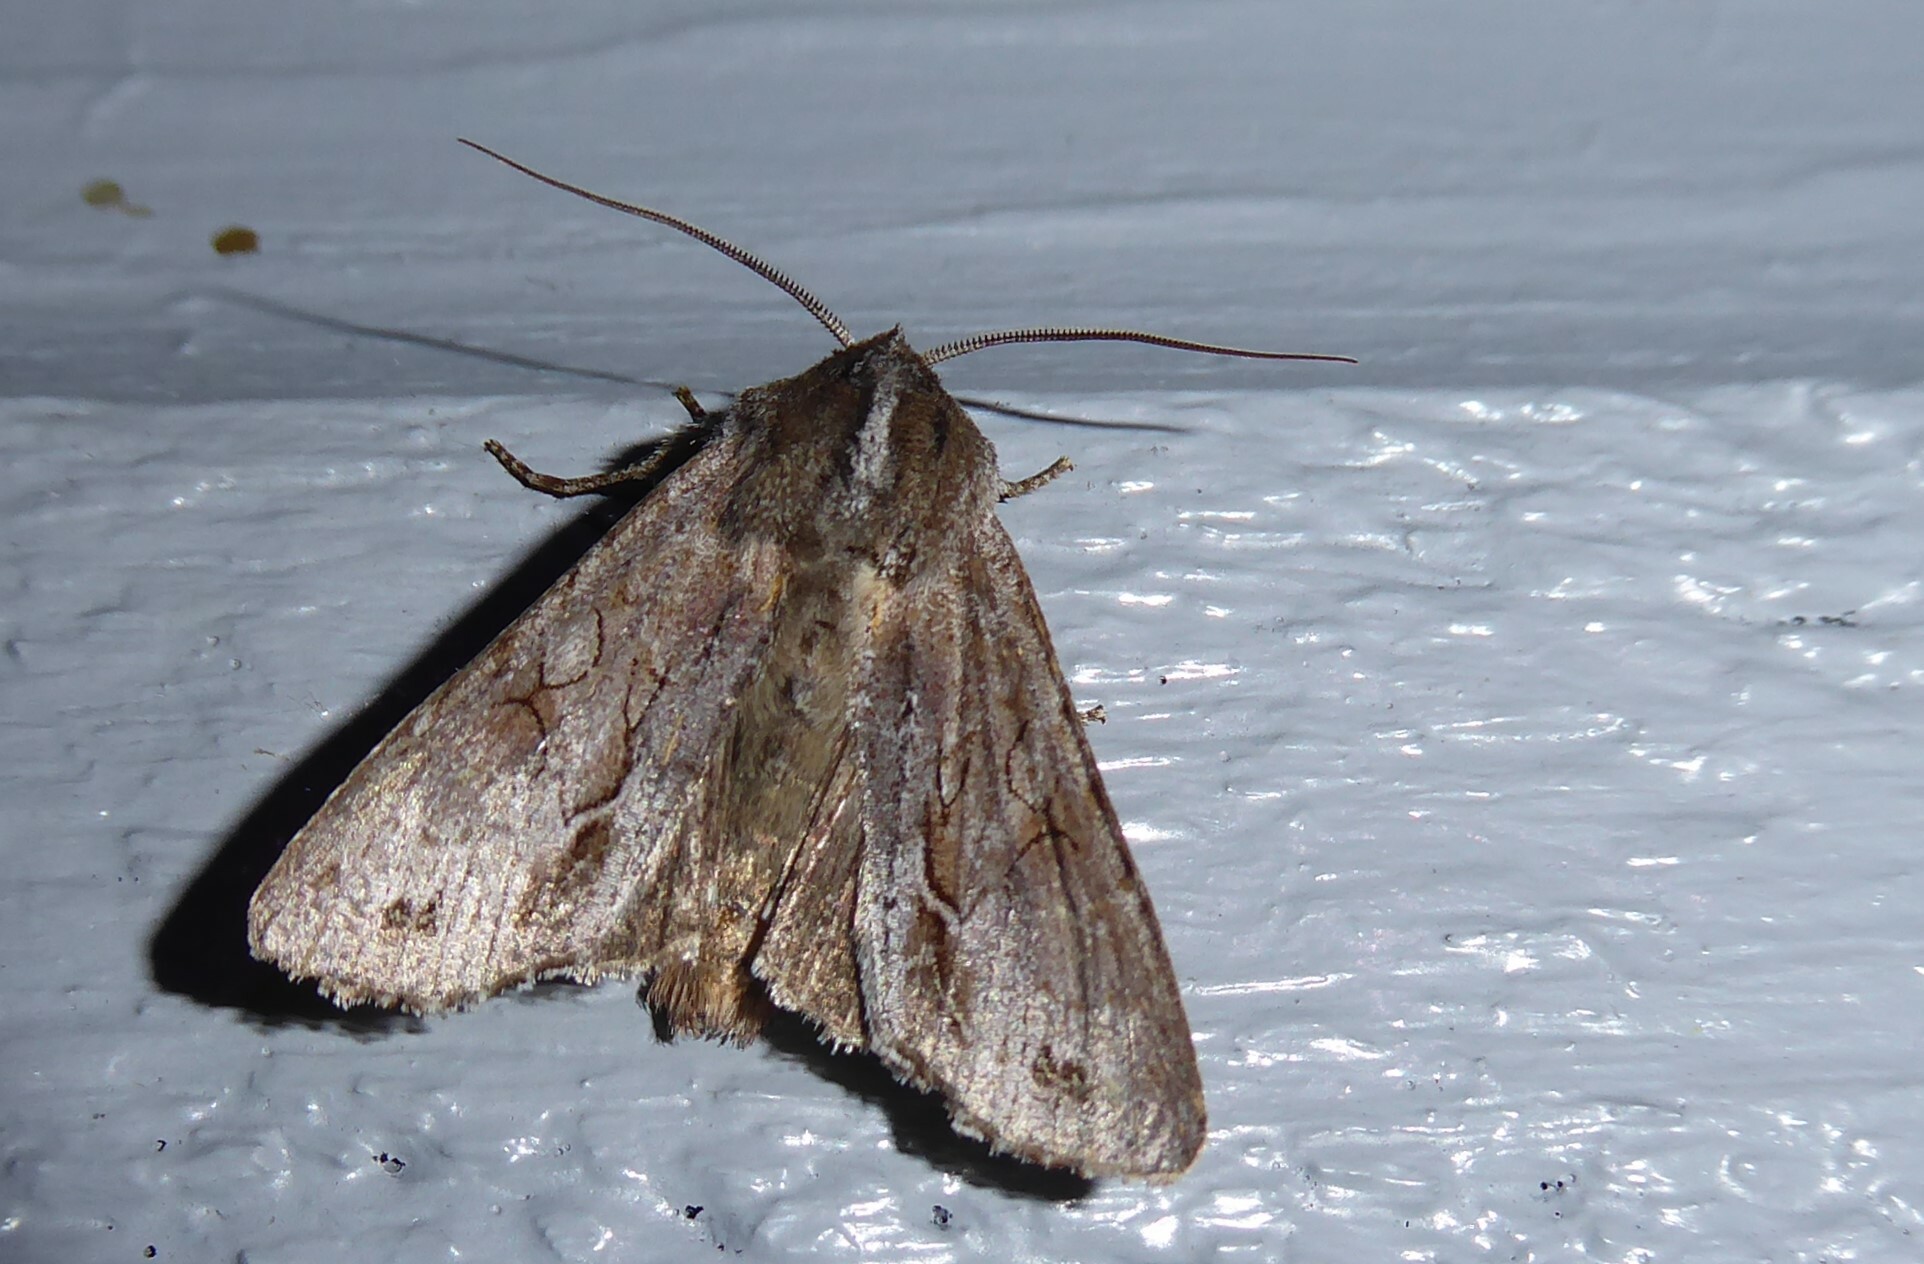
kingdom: Animalia
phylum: Arthropoda
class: Insecta
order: Lepidoptera
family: Noctuidae
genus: Ichneutica
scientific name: Ichneutica
